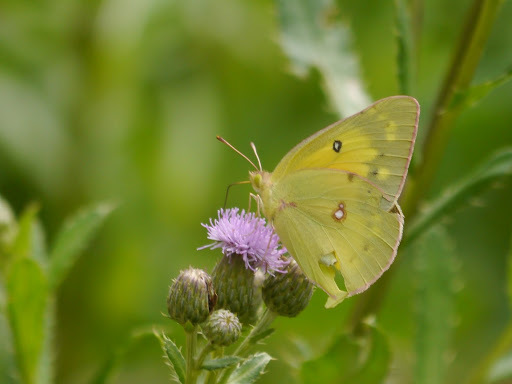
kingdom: Animalia
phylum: Arthropoda
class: Insecta
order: Lepidoptera
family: Pieridae
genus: Colias
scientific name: Colias eurytheme
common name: Alfalfa butterfly
